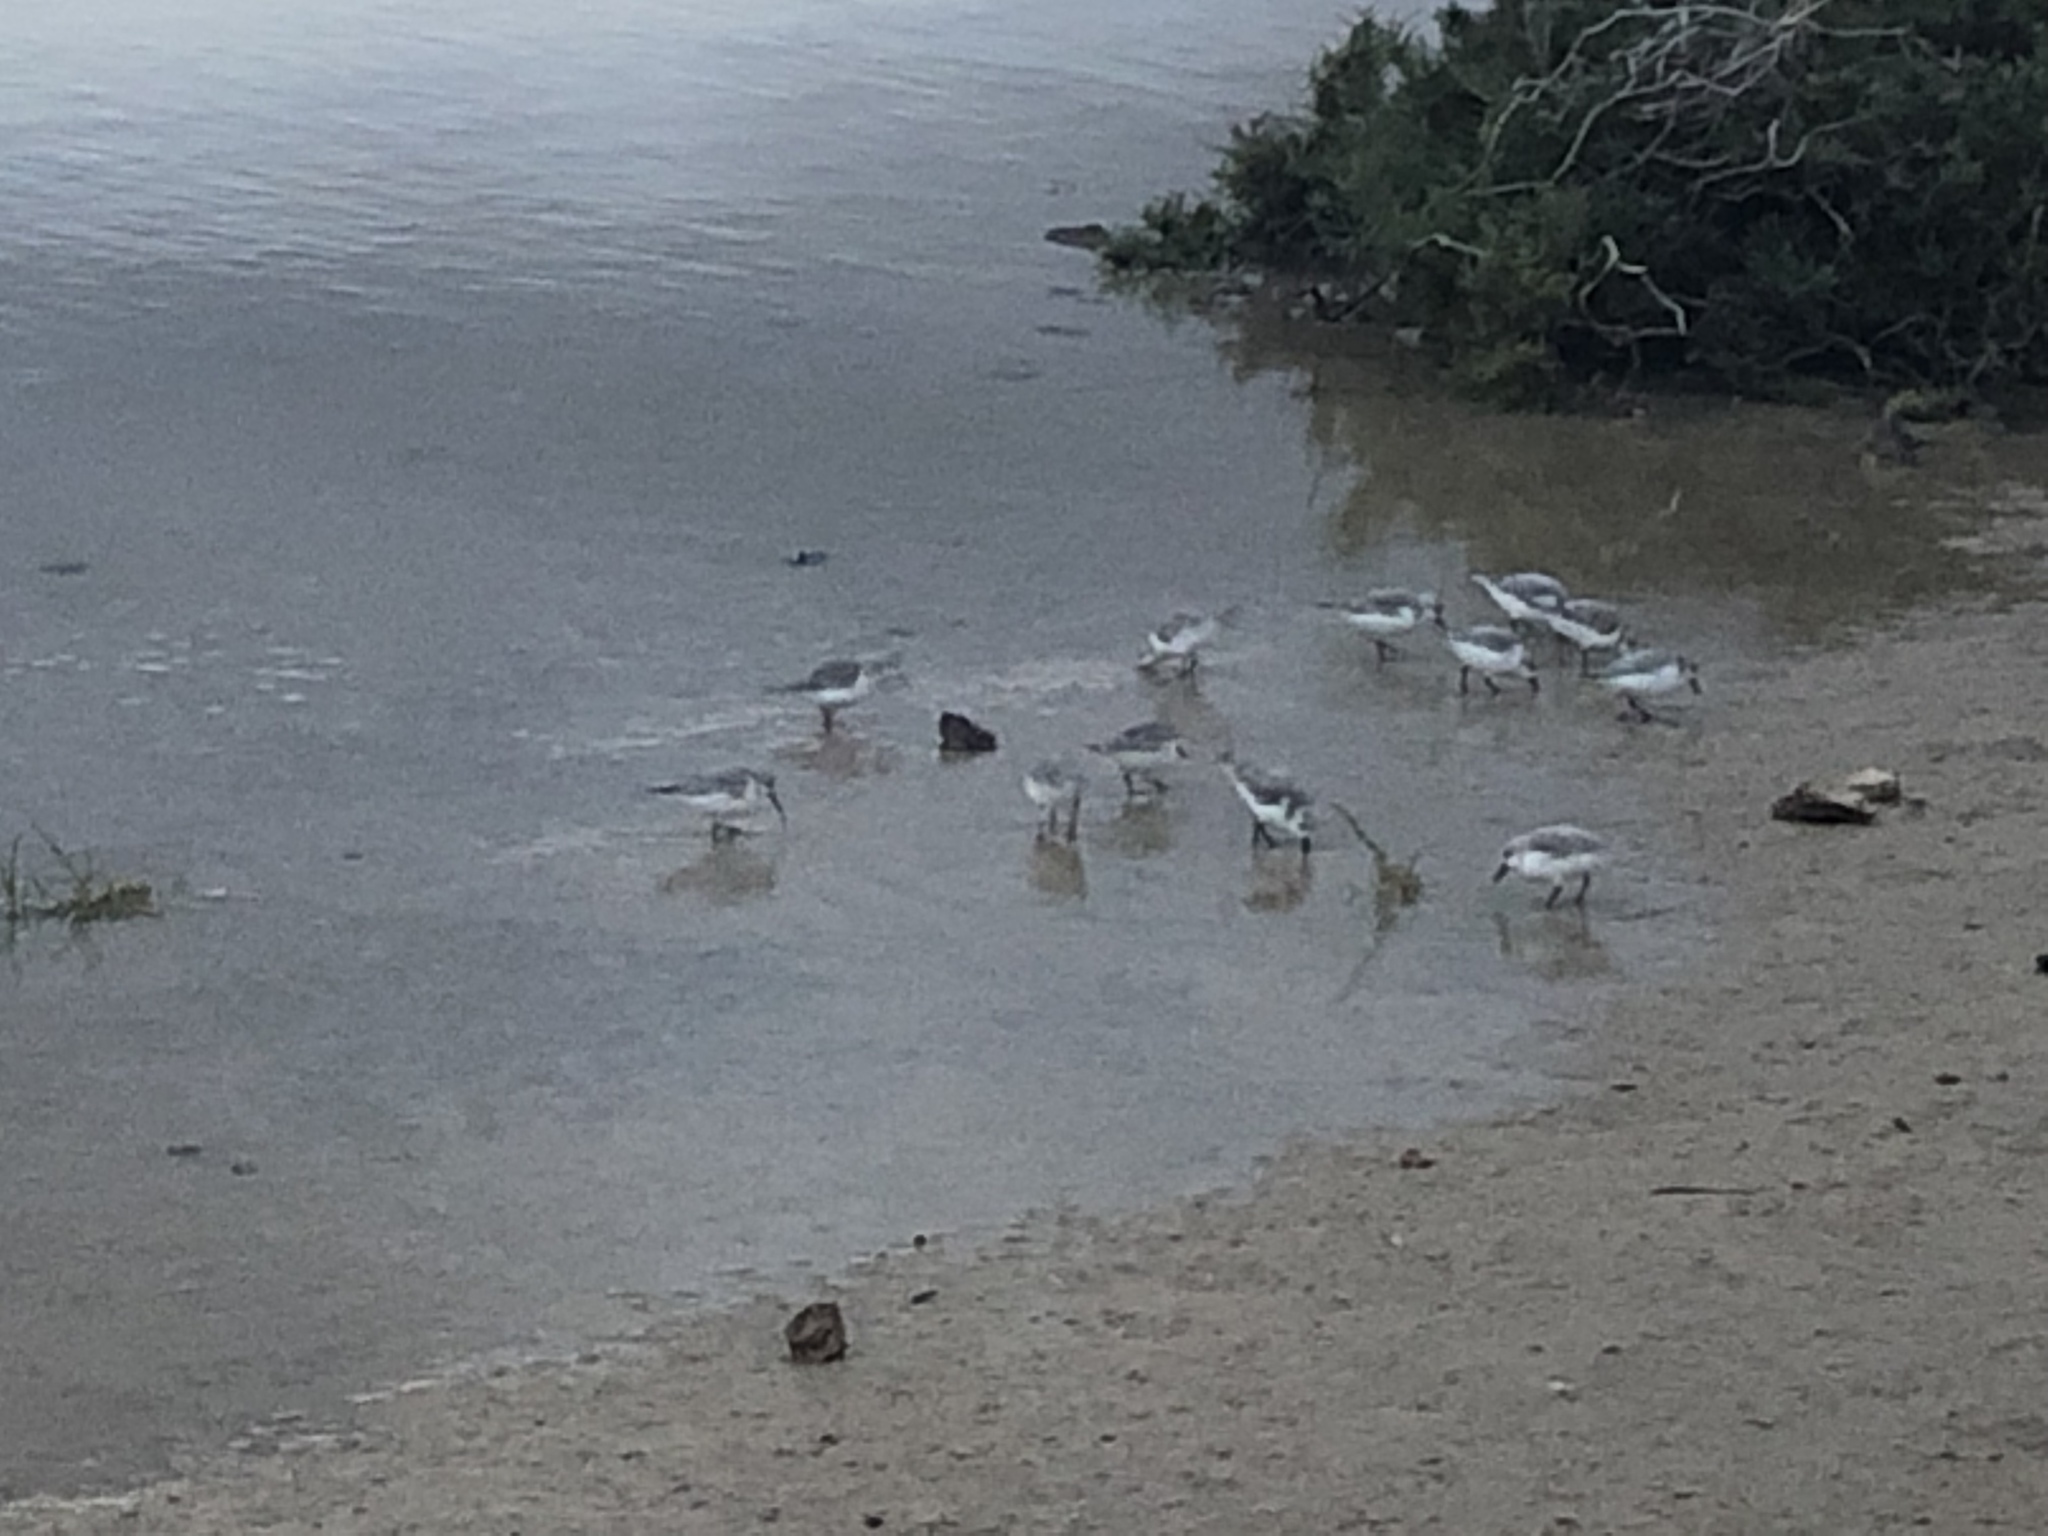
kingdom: Animalia
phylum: Chordata
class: Aves
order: Charadriiformes
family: Scolopacidae
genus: Calidris
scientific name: Calidris alba
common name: Sanderling
